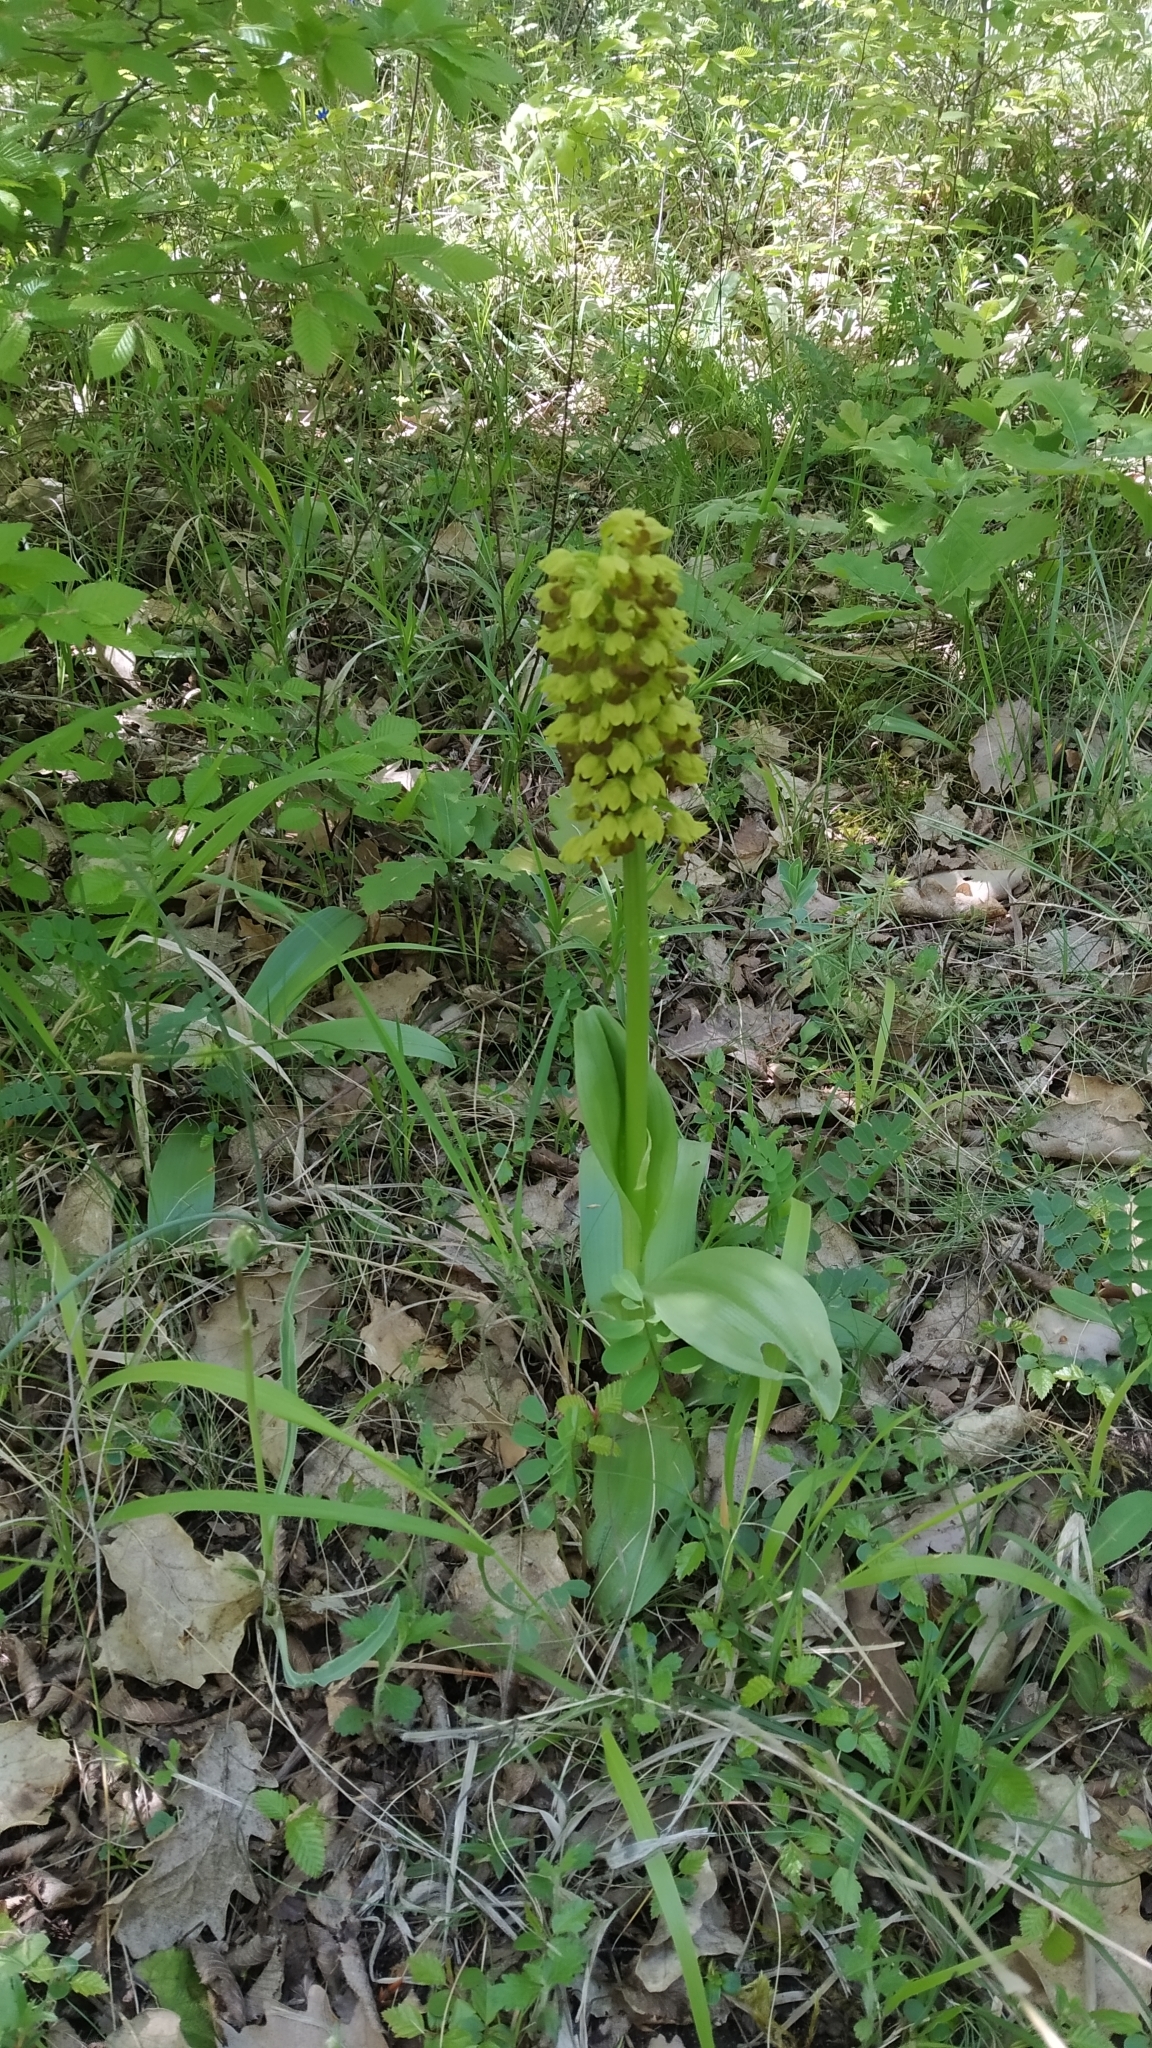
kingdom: Plantae
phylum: Tracheophyta
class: Liliopsida
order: Asparagales
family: Orchidaceae
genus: Orchis
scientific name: Orchis punctulata
